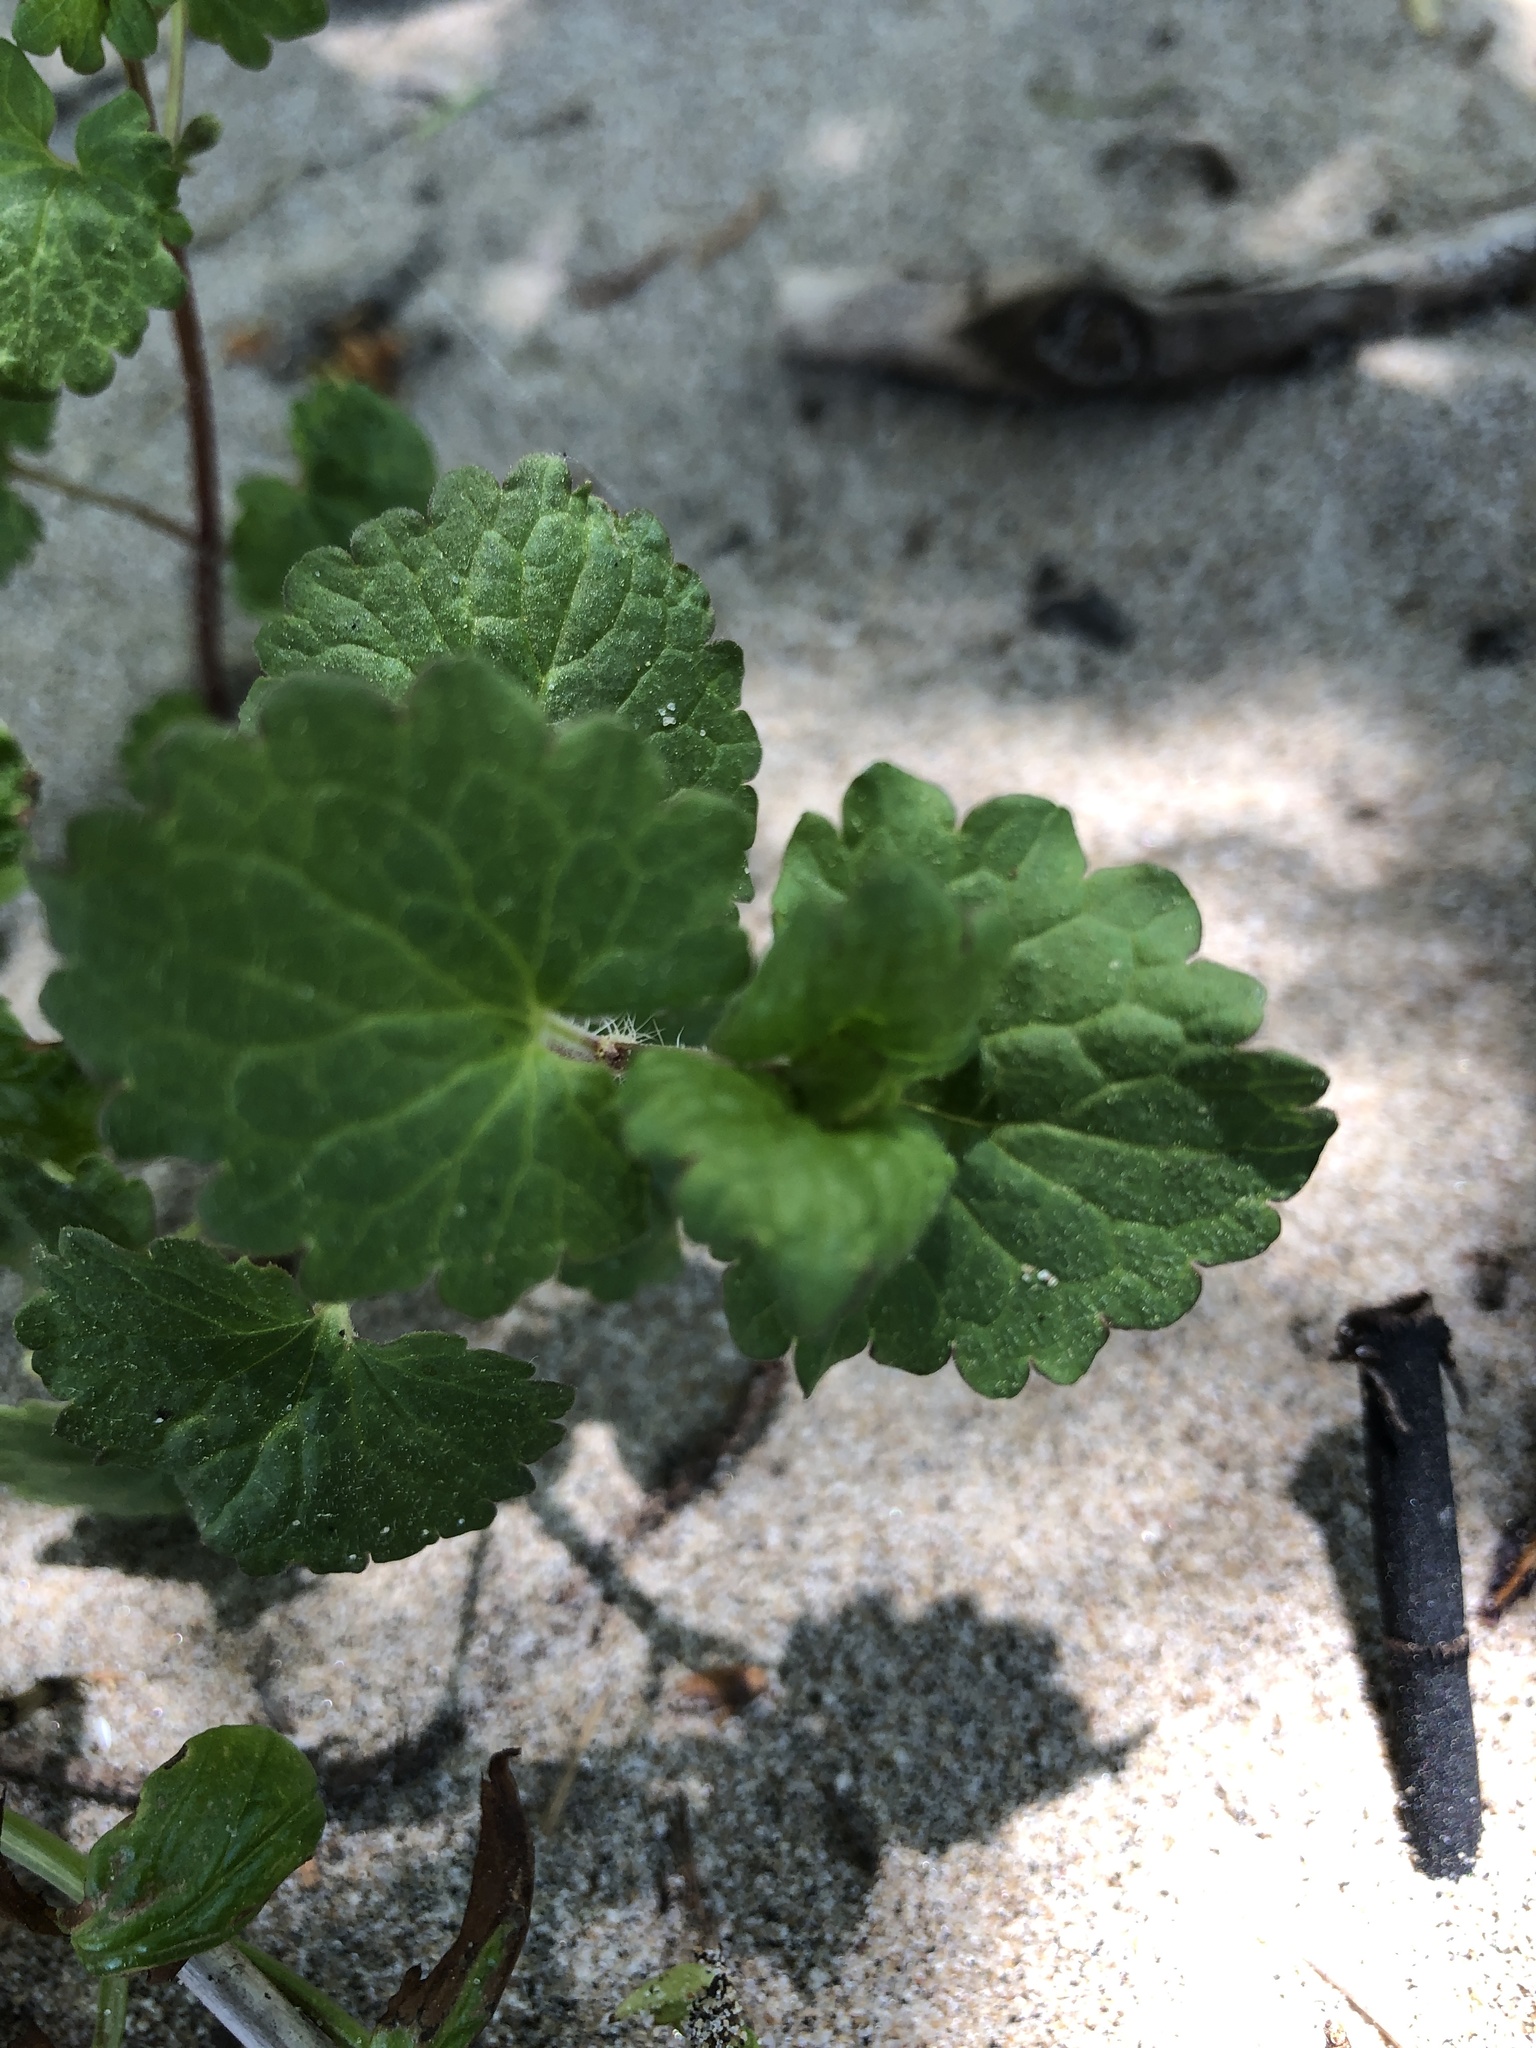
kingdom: Plantae
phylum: Tracheophyta
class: Magnoliopsida
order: Lamiales
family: Lamiaceae
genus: Glechoma
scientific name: Glechoma hederacea
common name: Ground ivy
